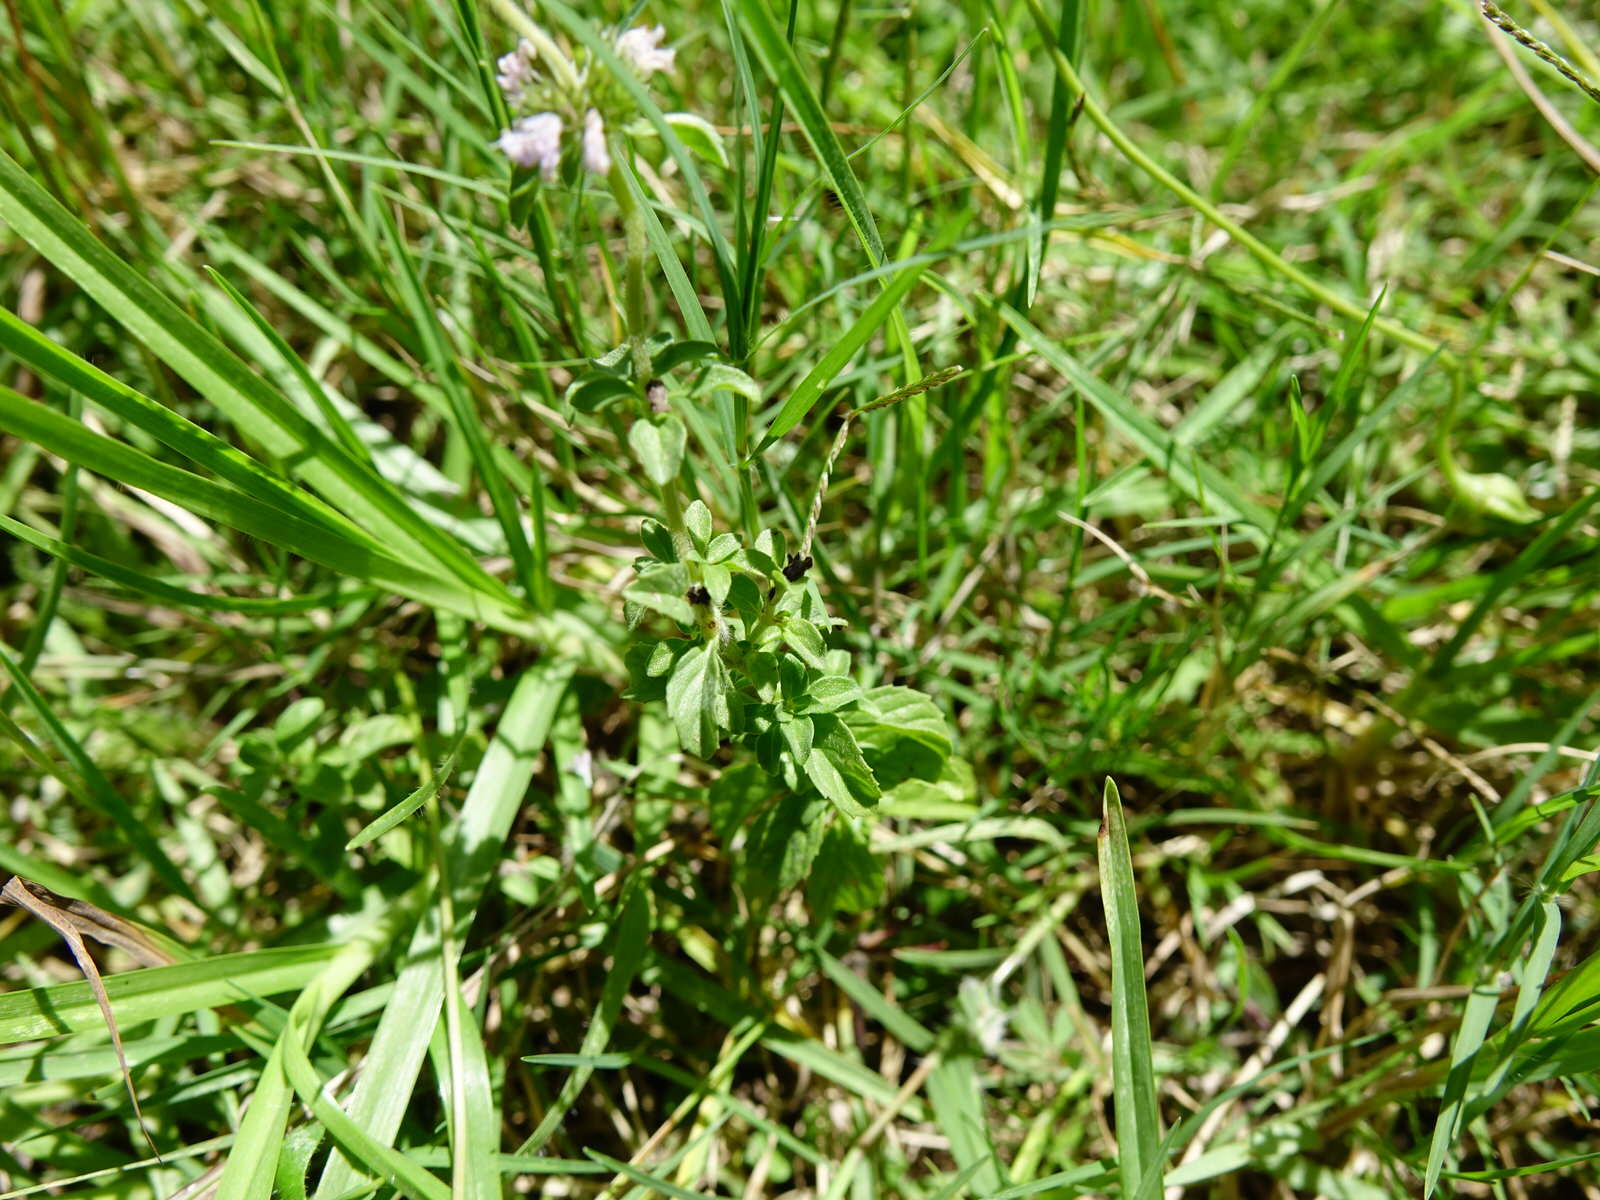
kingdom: Plantae
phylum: Tracheophyta
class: Magnoliopsida
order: Lamiales
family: Lamiaceae
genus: Mentha
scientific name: Mentha pulegium
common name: Pennyroyal
